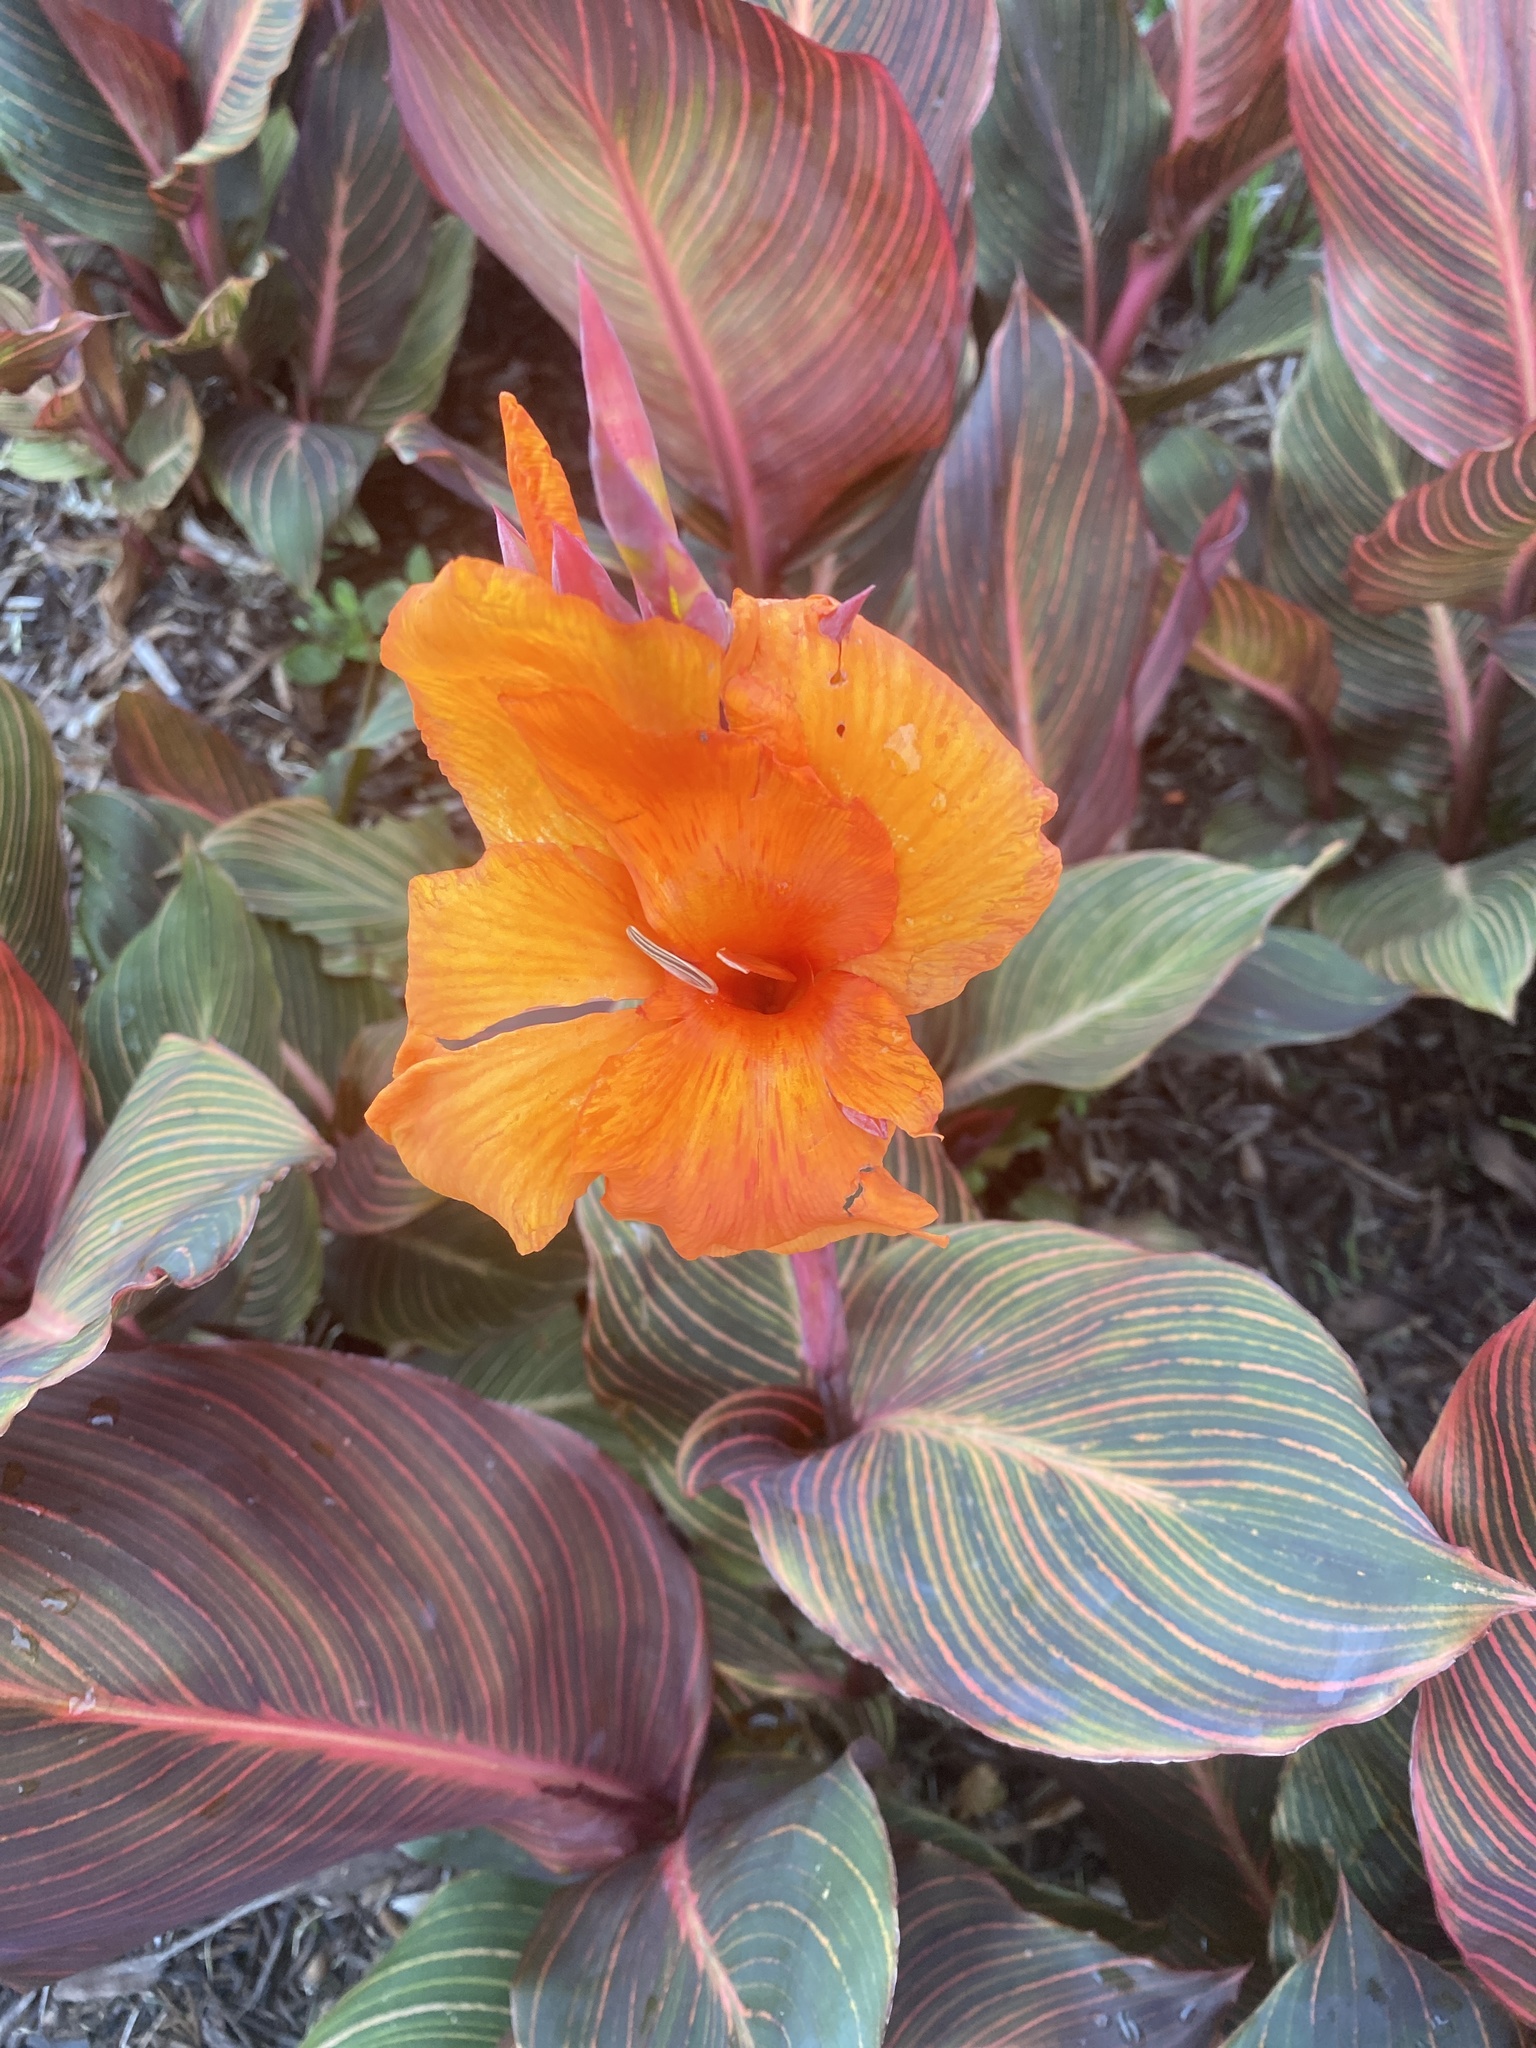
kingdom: Plantae
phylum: Tracheophyta
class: Liliopsida
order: Zingiberales
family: Cannaceae
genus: Canna
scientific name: Canna hybrida
